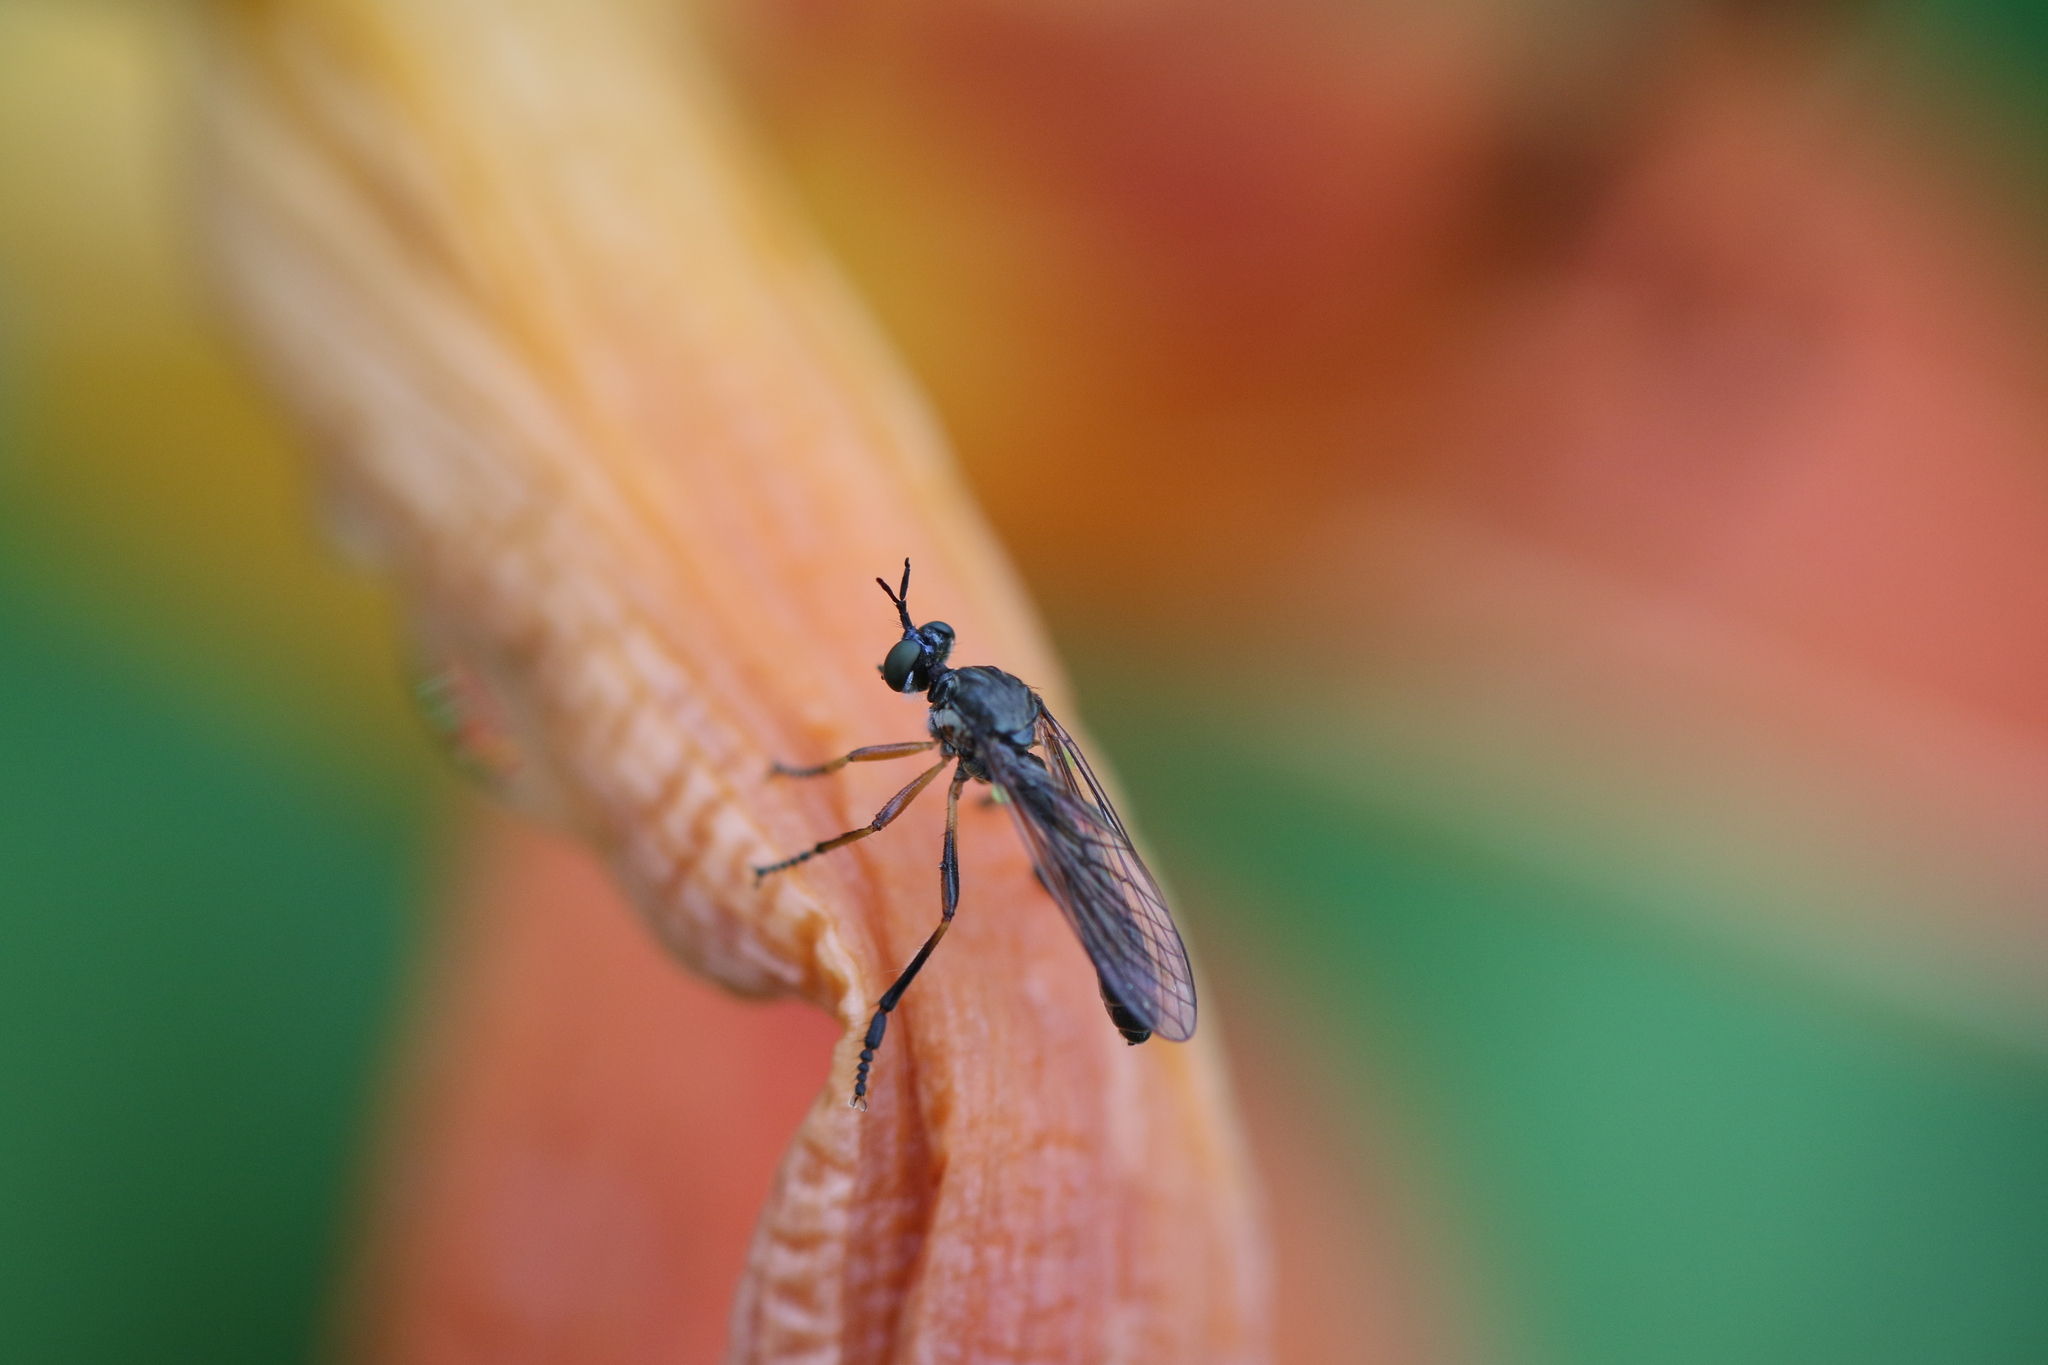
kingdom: Animalia
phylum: Arthropoda
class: Insecta
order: Diptera
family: Asilidae
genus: Dioctria
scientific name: Dioctria hyalipennis
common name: Stripe-legged robberfly
